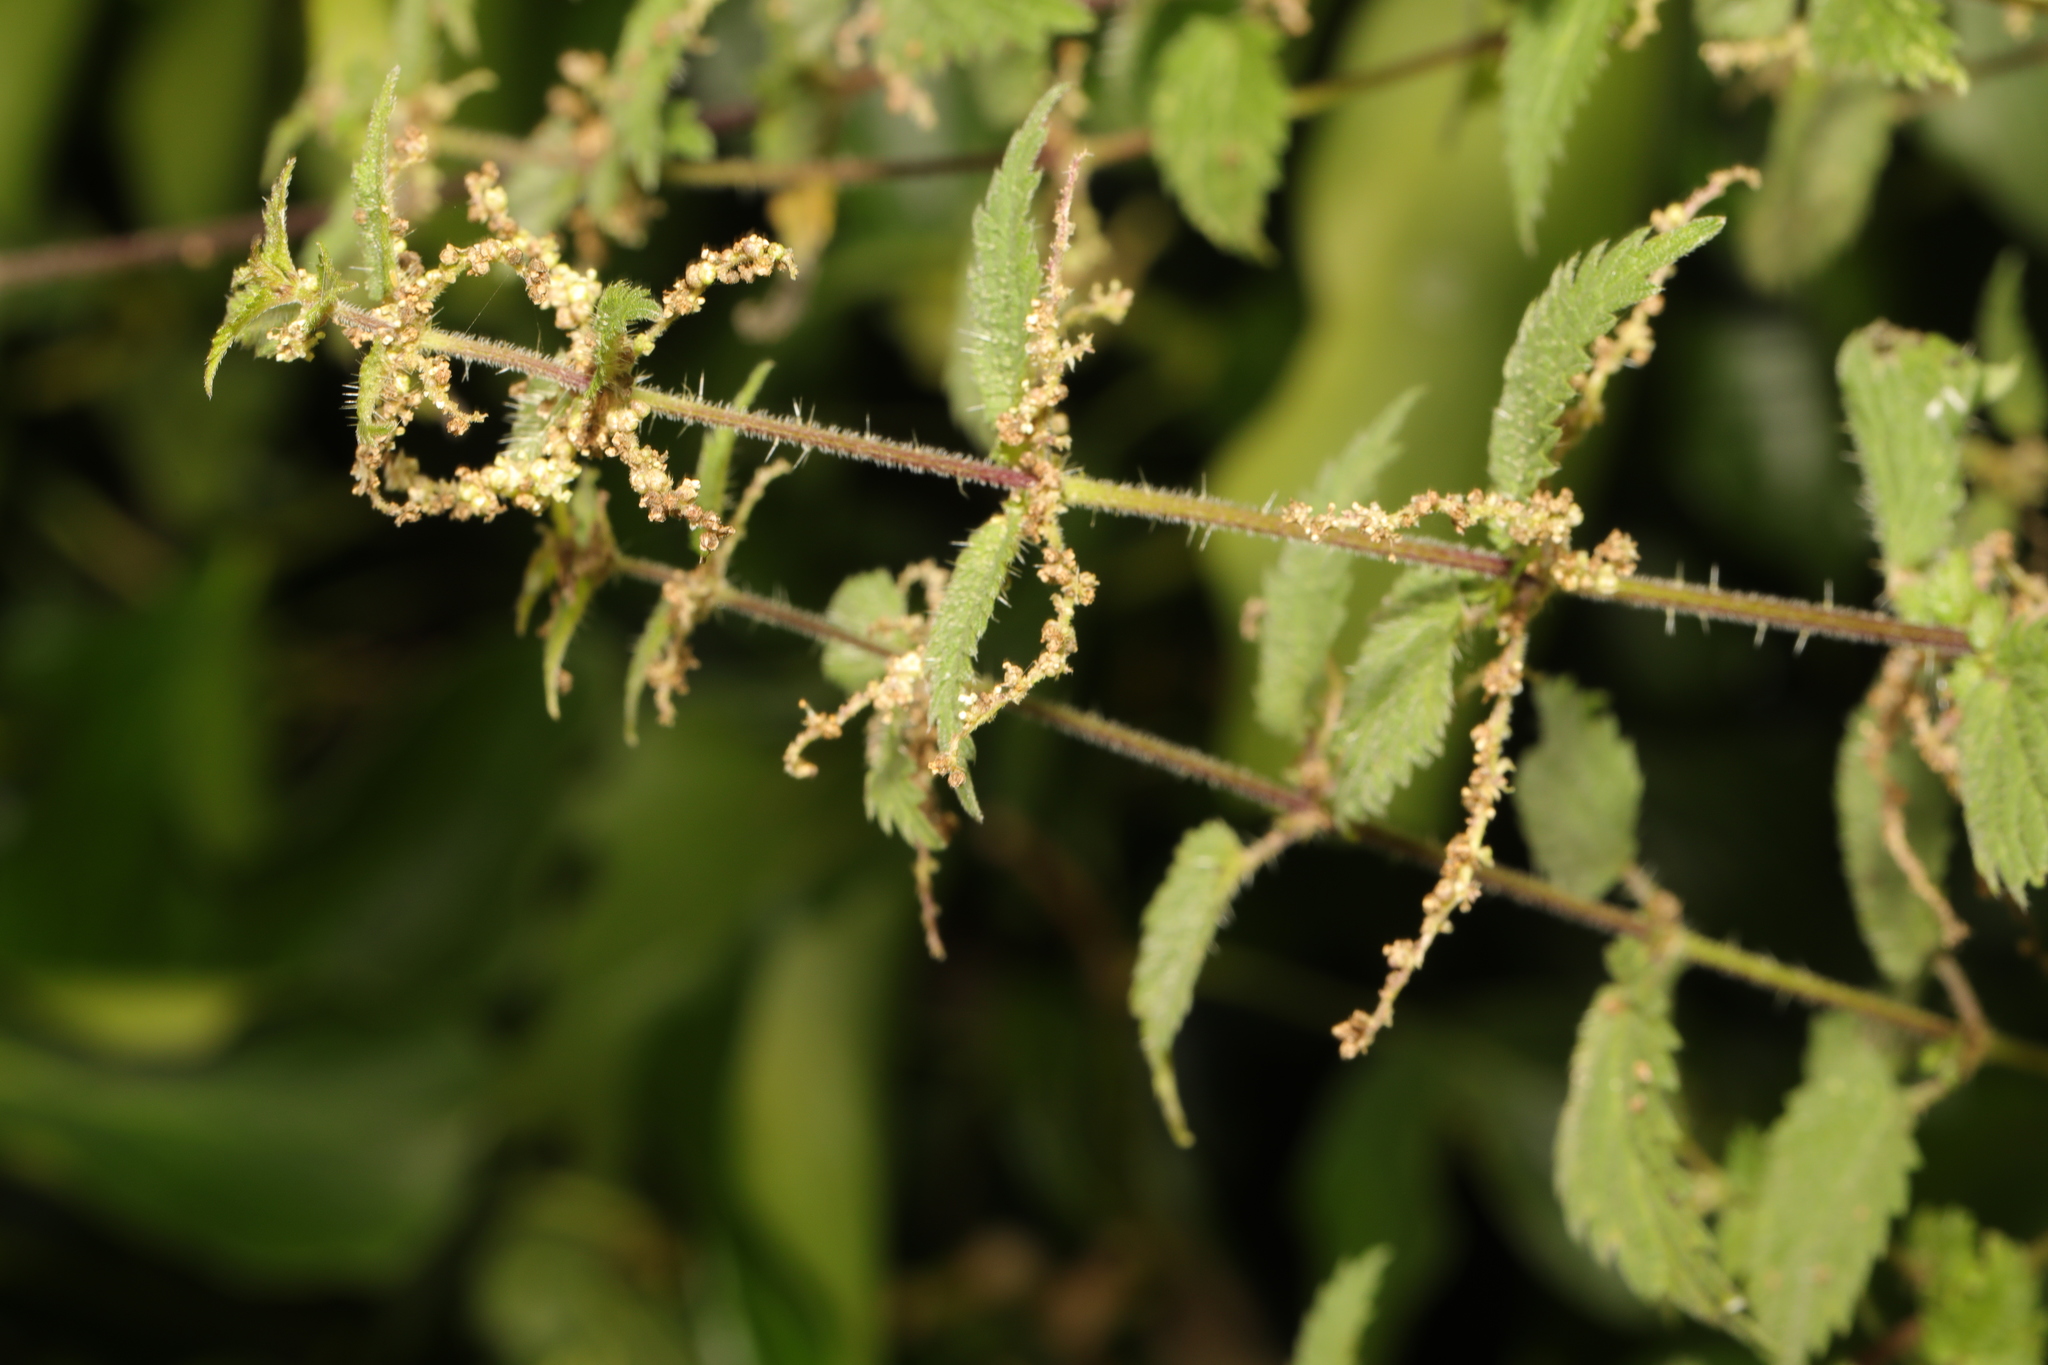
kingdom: Plantae
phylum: Tracheophyta
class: Magnoliopsida
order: Rosales
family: Urticaceae
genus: Urtica
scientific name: Urtica dioica
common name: Common nettle
